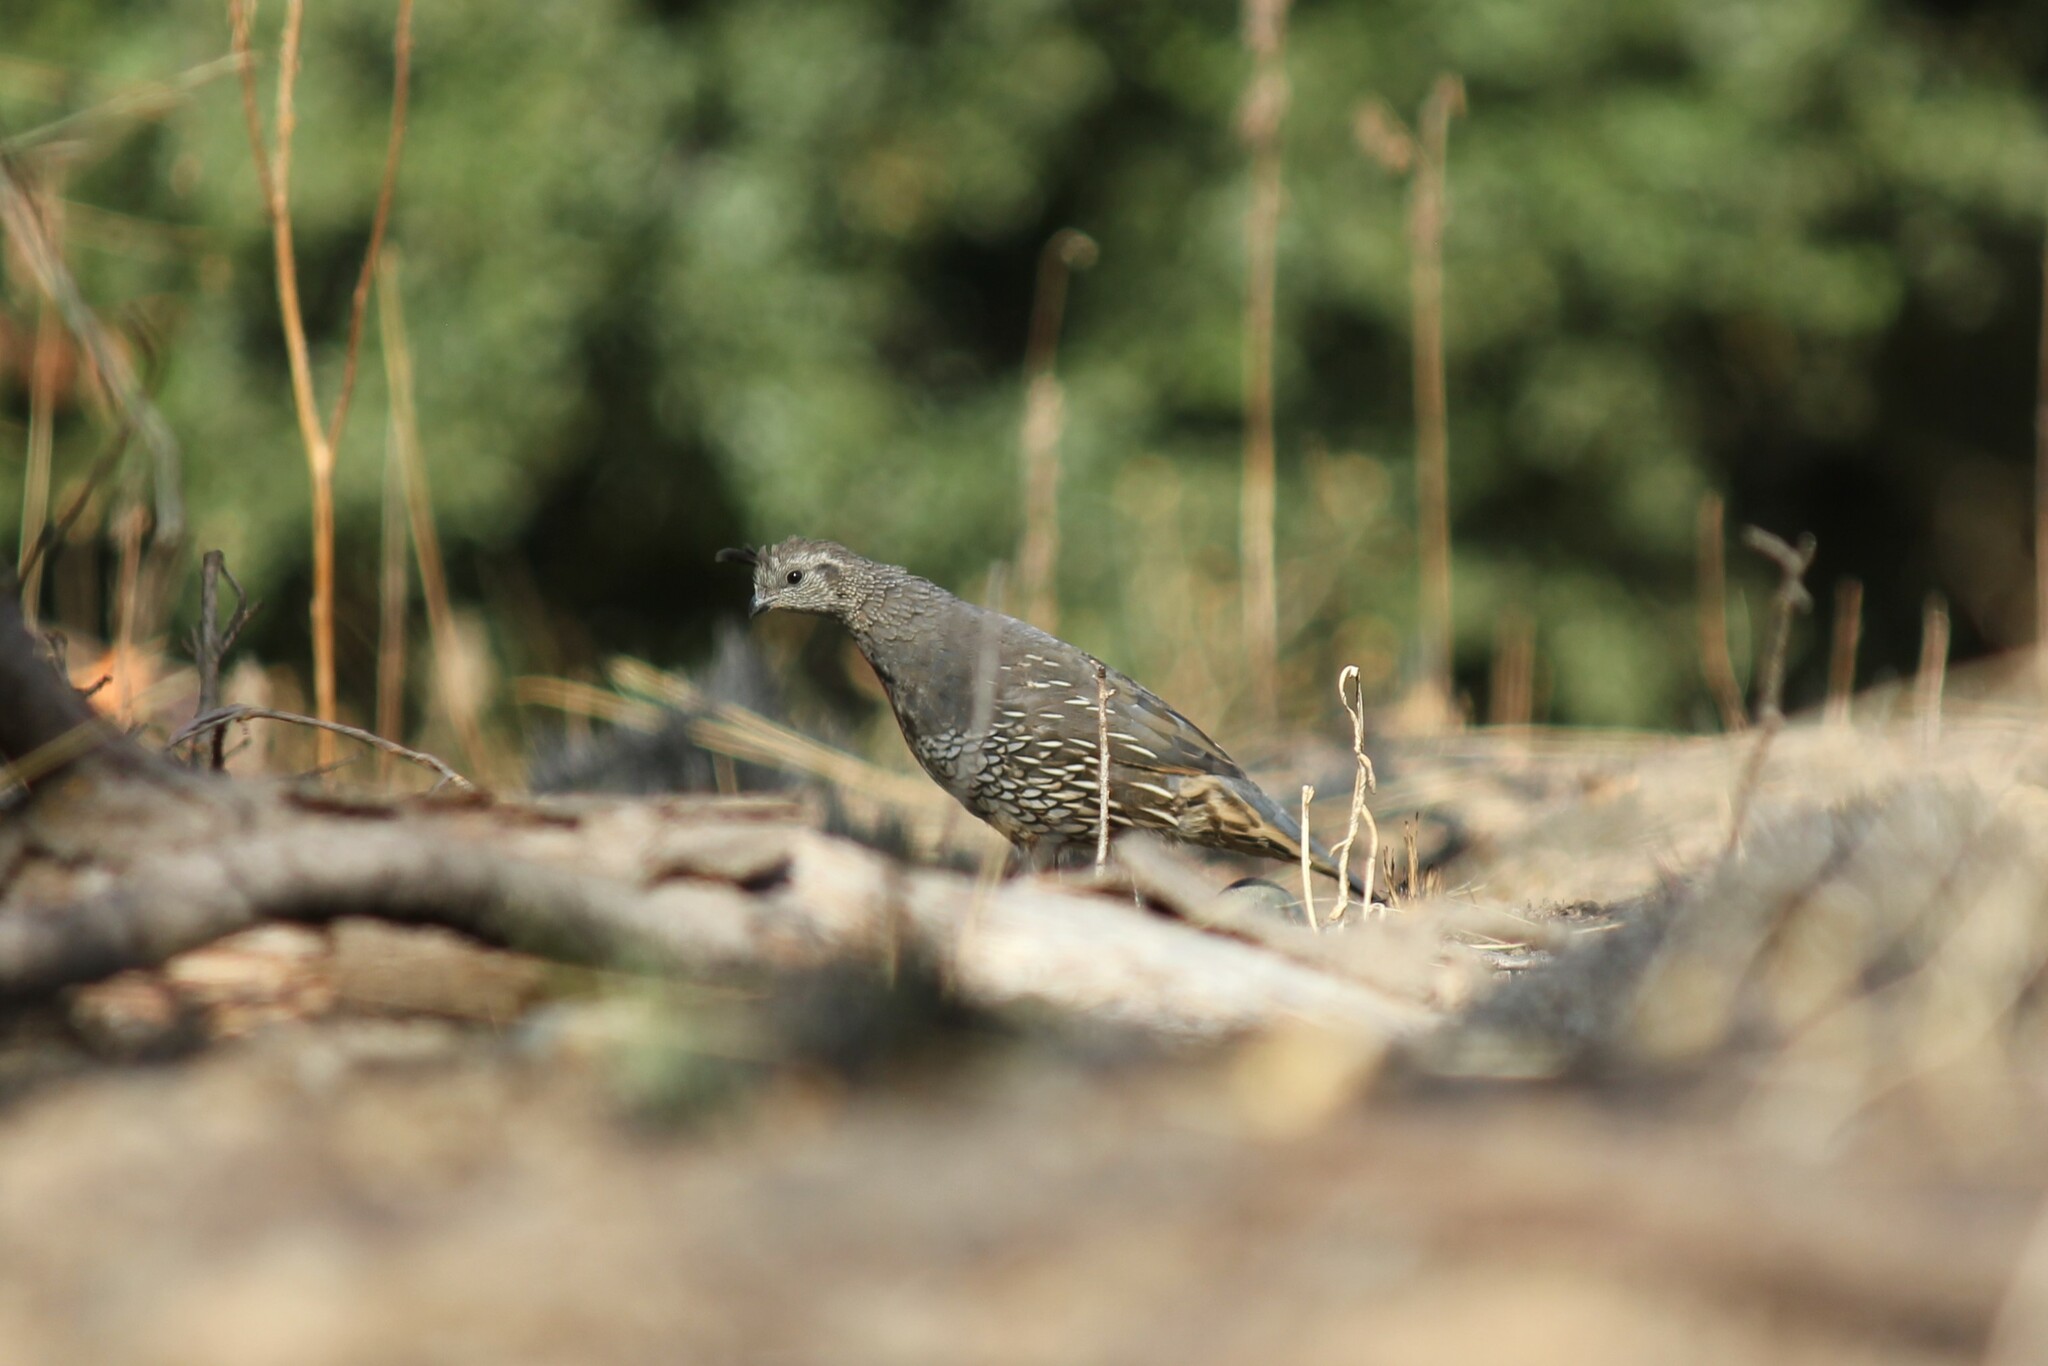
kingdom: Animalia
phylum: Chordata
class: Aves
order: Galliformes
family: Odontophoridae
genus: Callipepla
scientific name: Callipepla californica
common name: California quail
